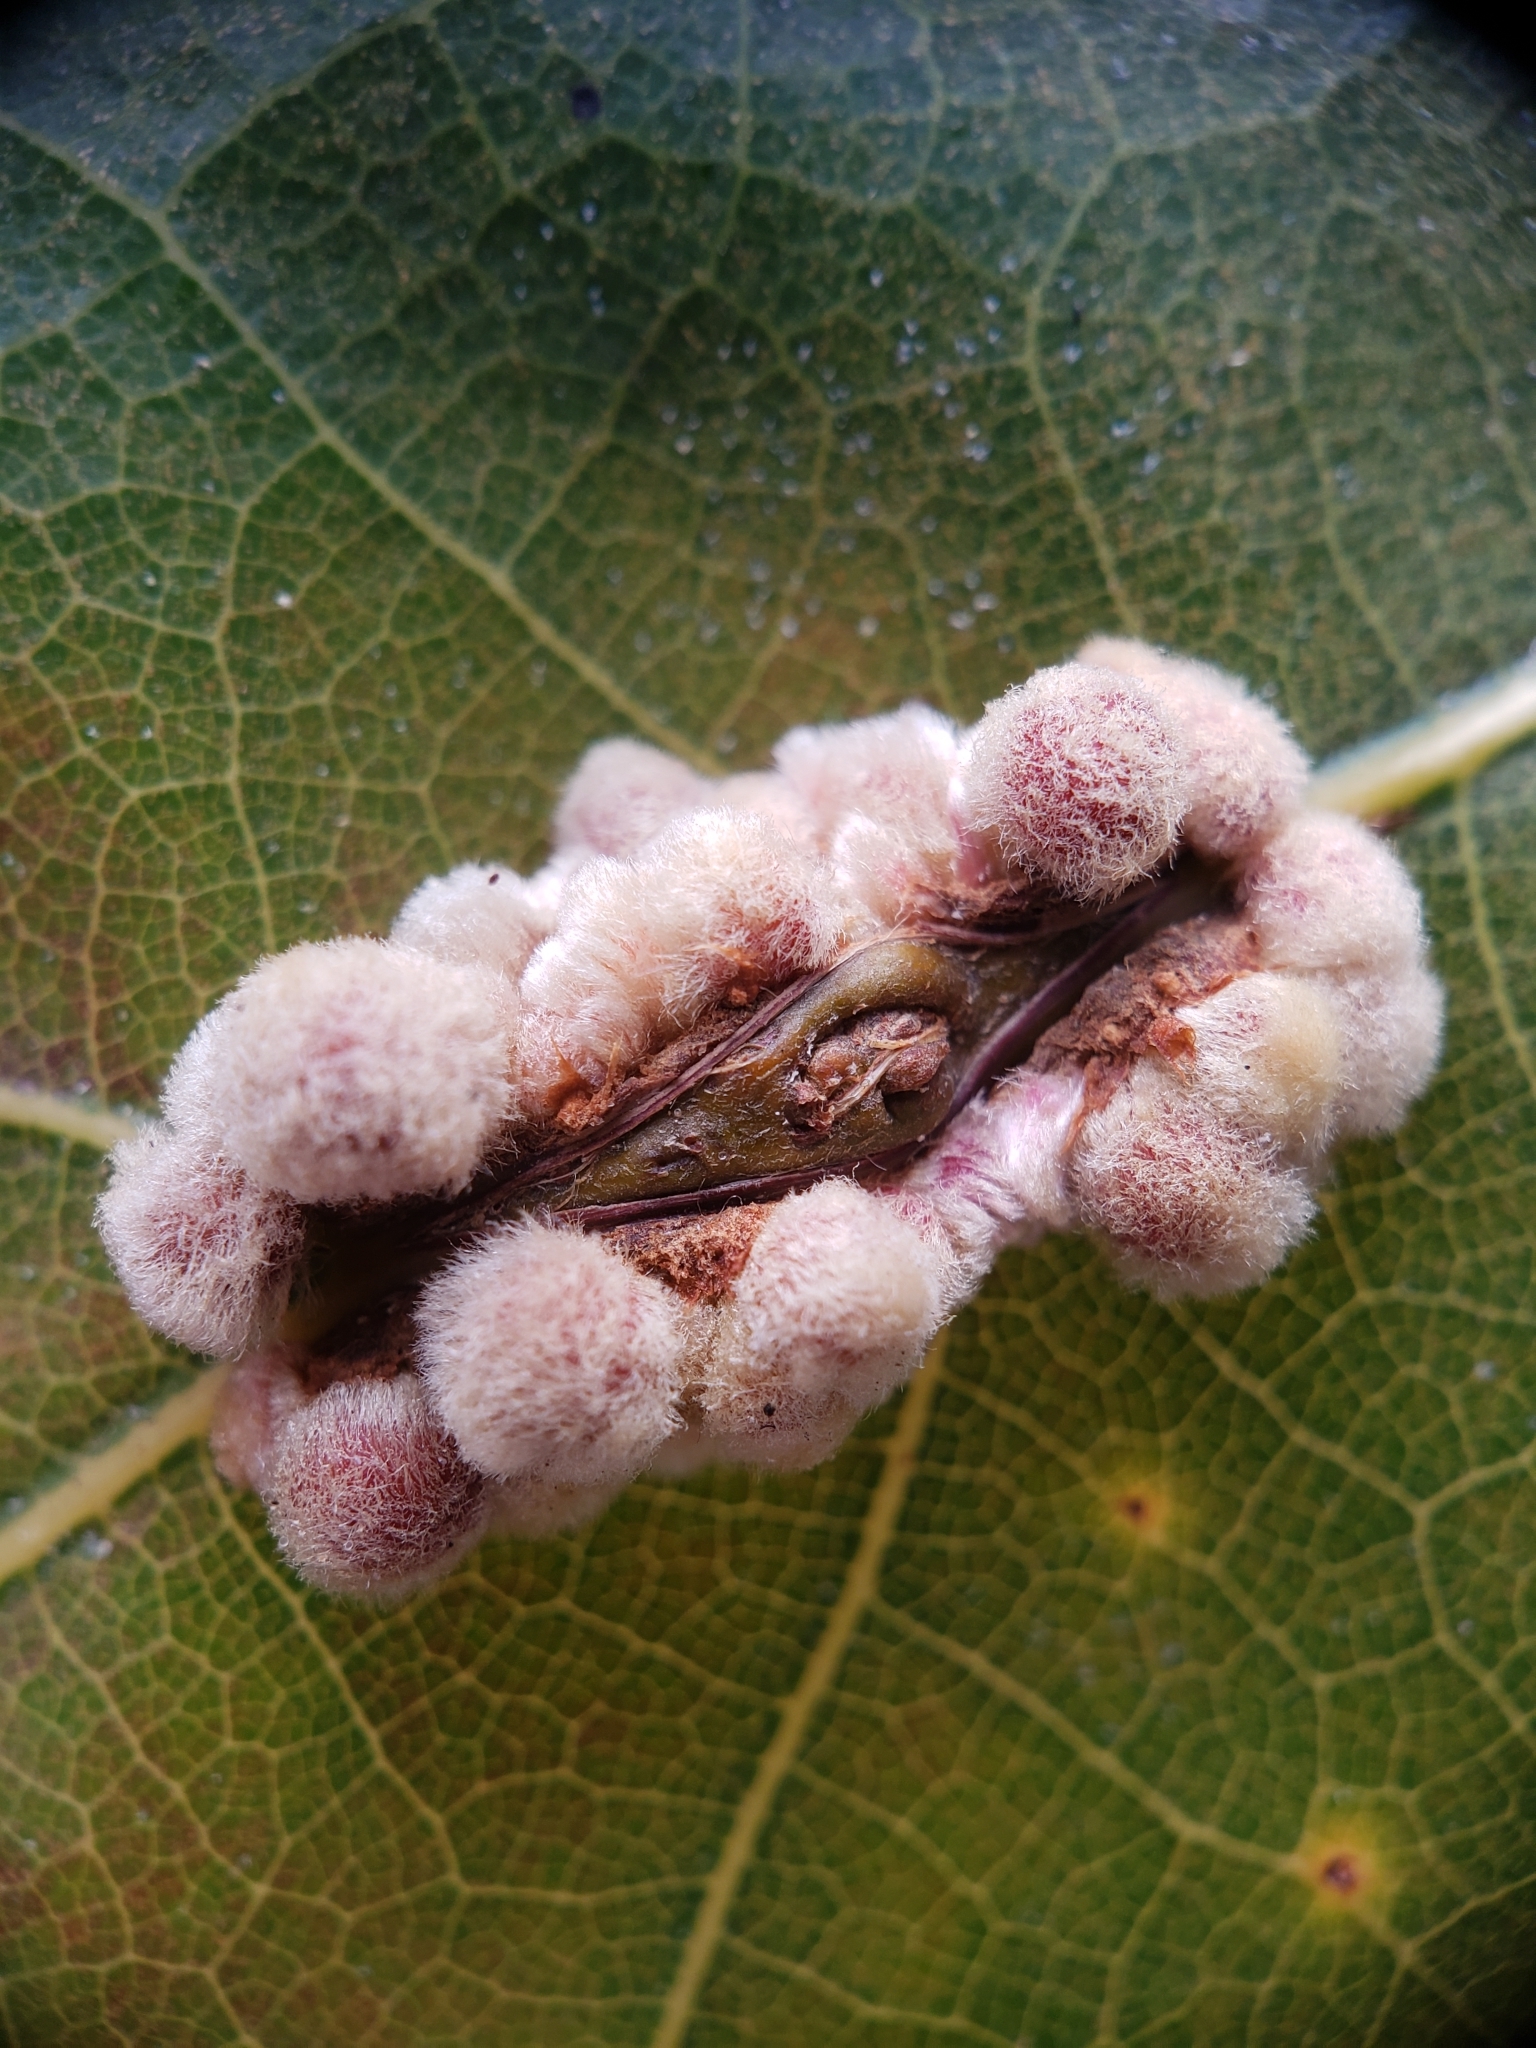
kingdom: Animalia
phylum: Arthropoda
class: Insecta
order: Hymenoptera
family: Cynipidae
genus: Callirhytis
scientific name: Callirhytis
